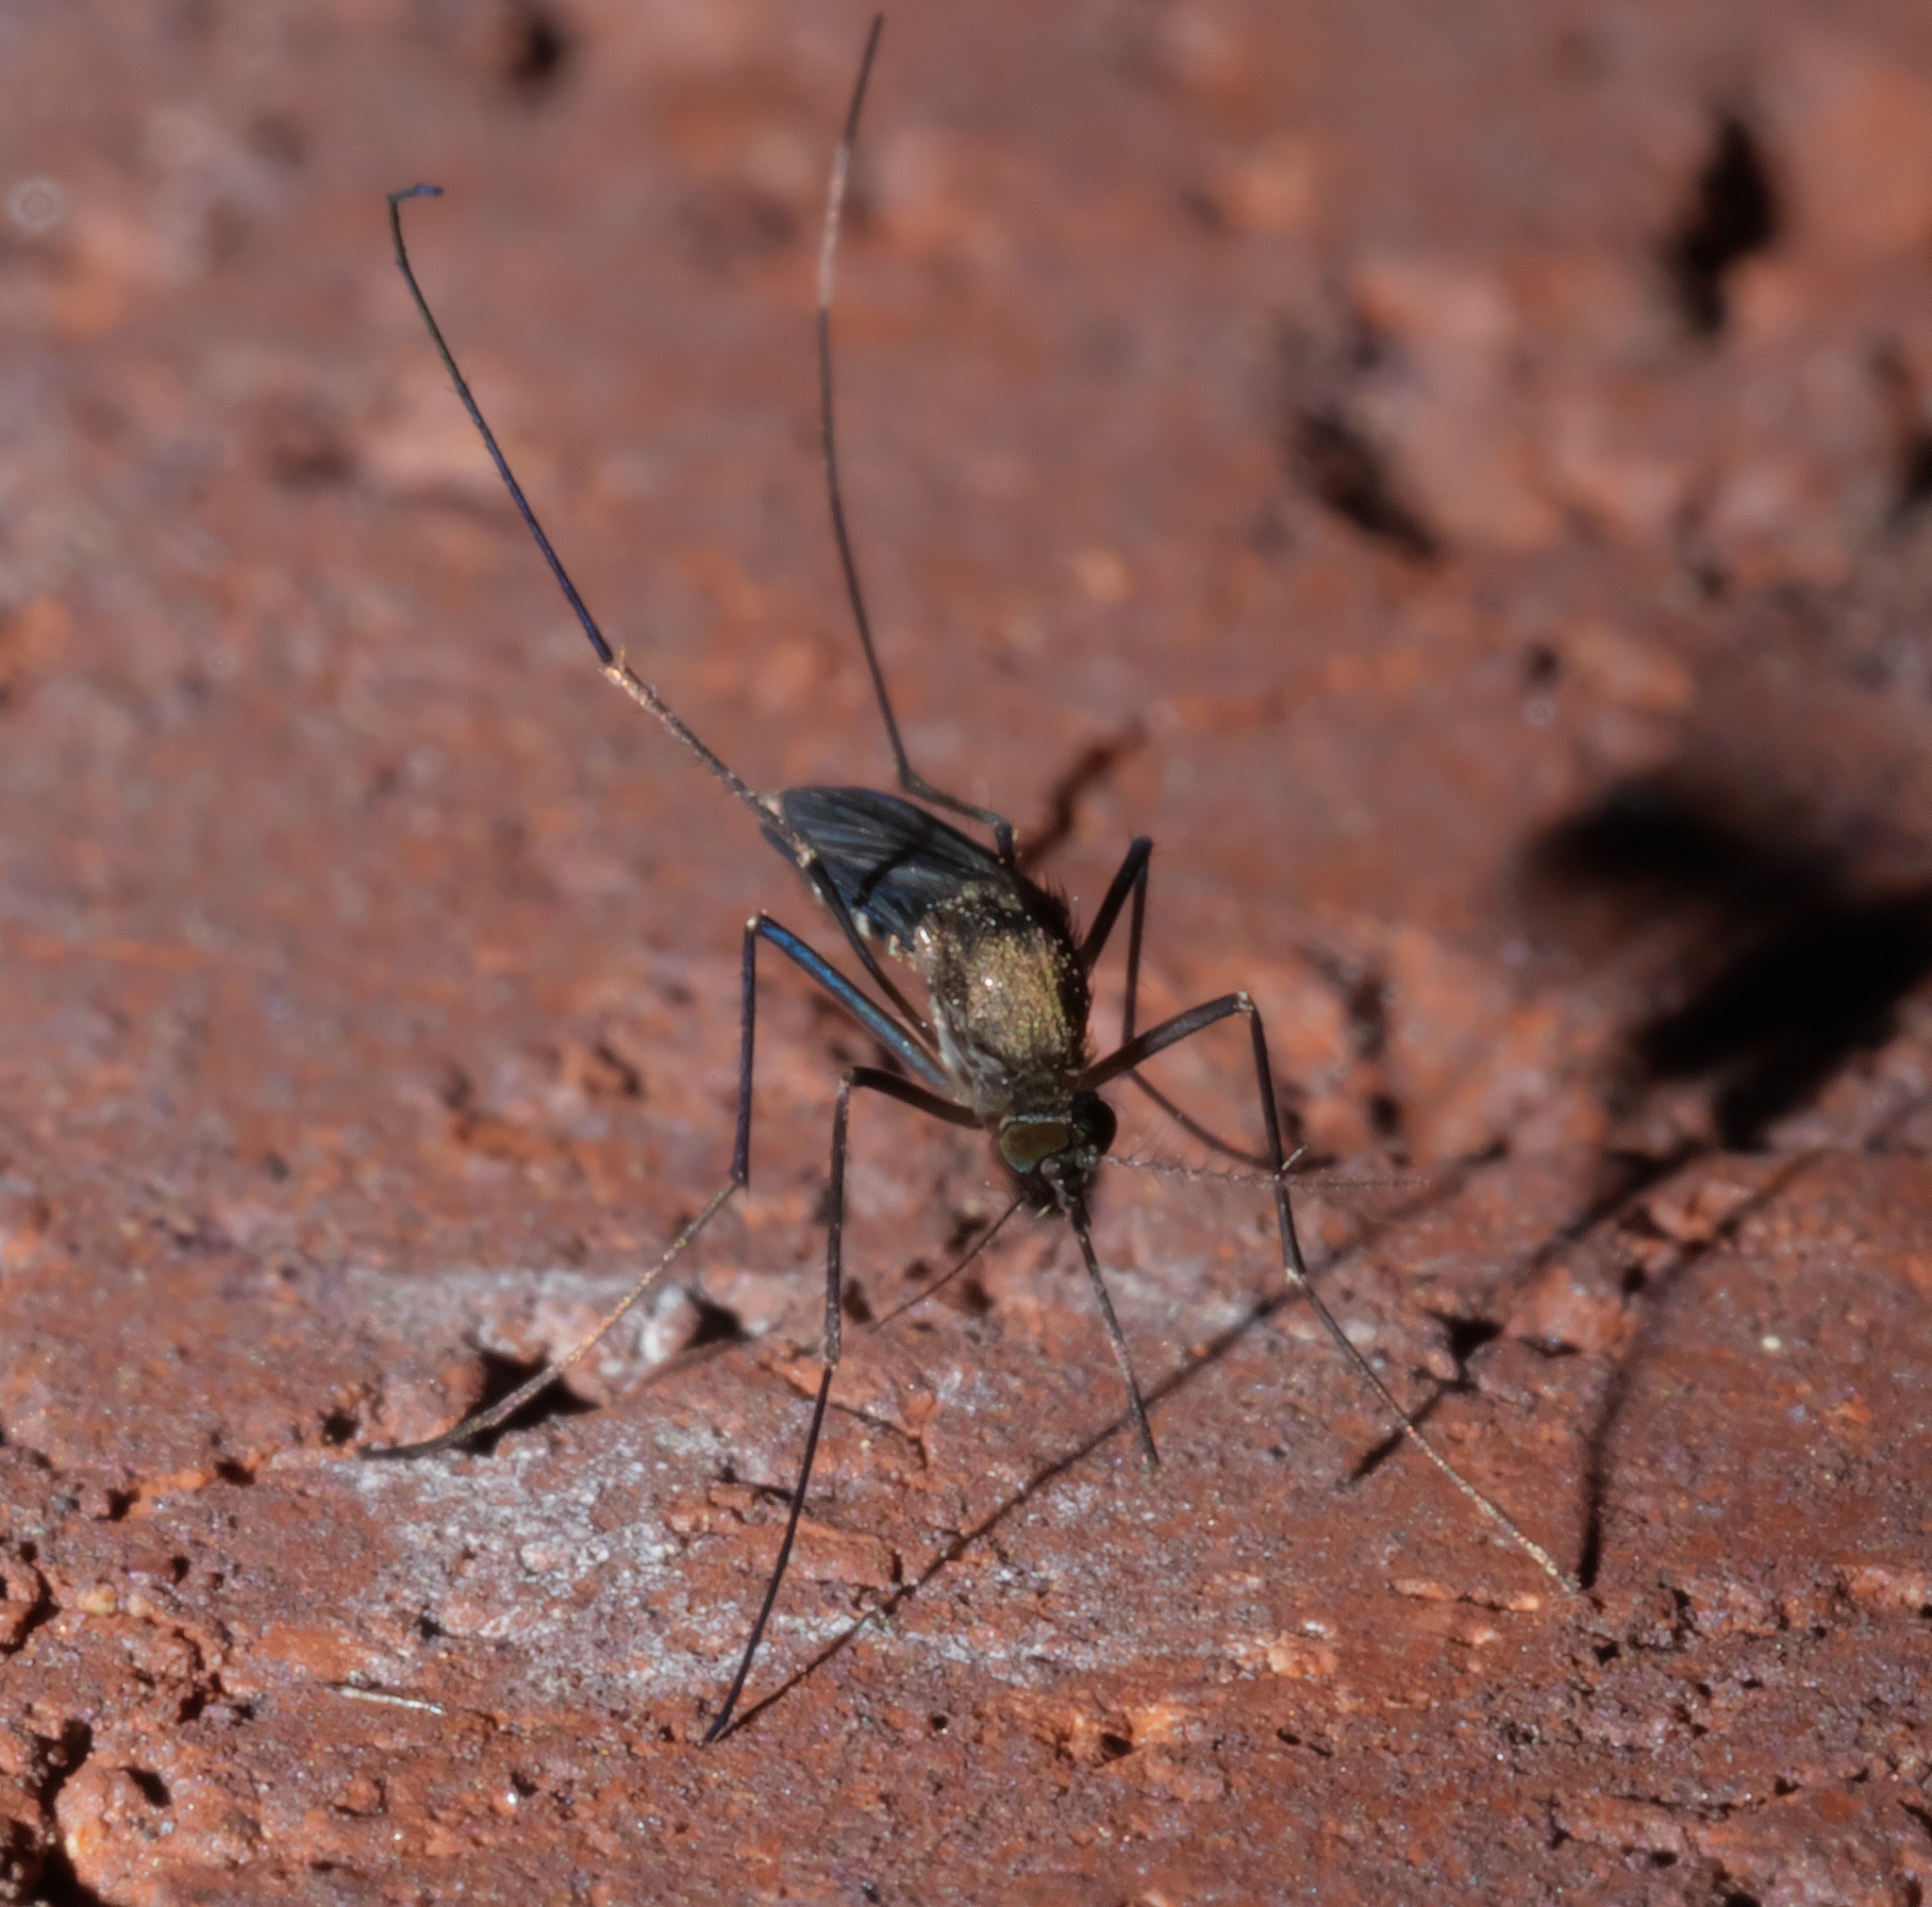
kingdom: Animalia
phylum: Arthropoda
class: Insecta
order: Diptera
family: Culicidae
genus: Culex
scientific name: Culex erraticus
